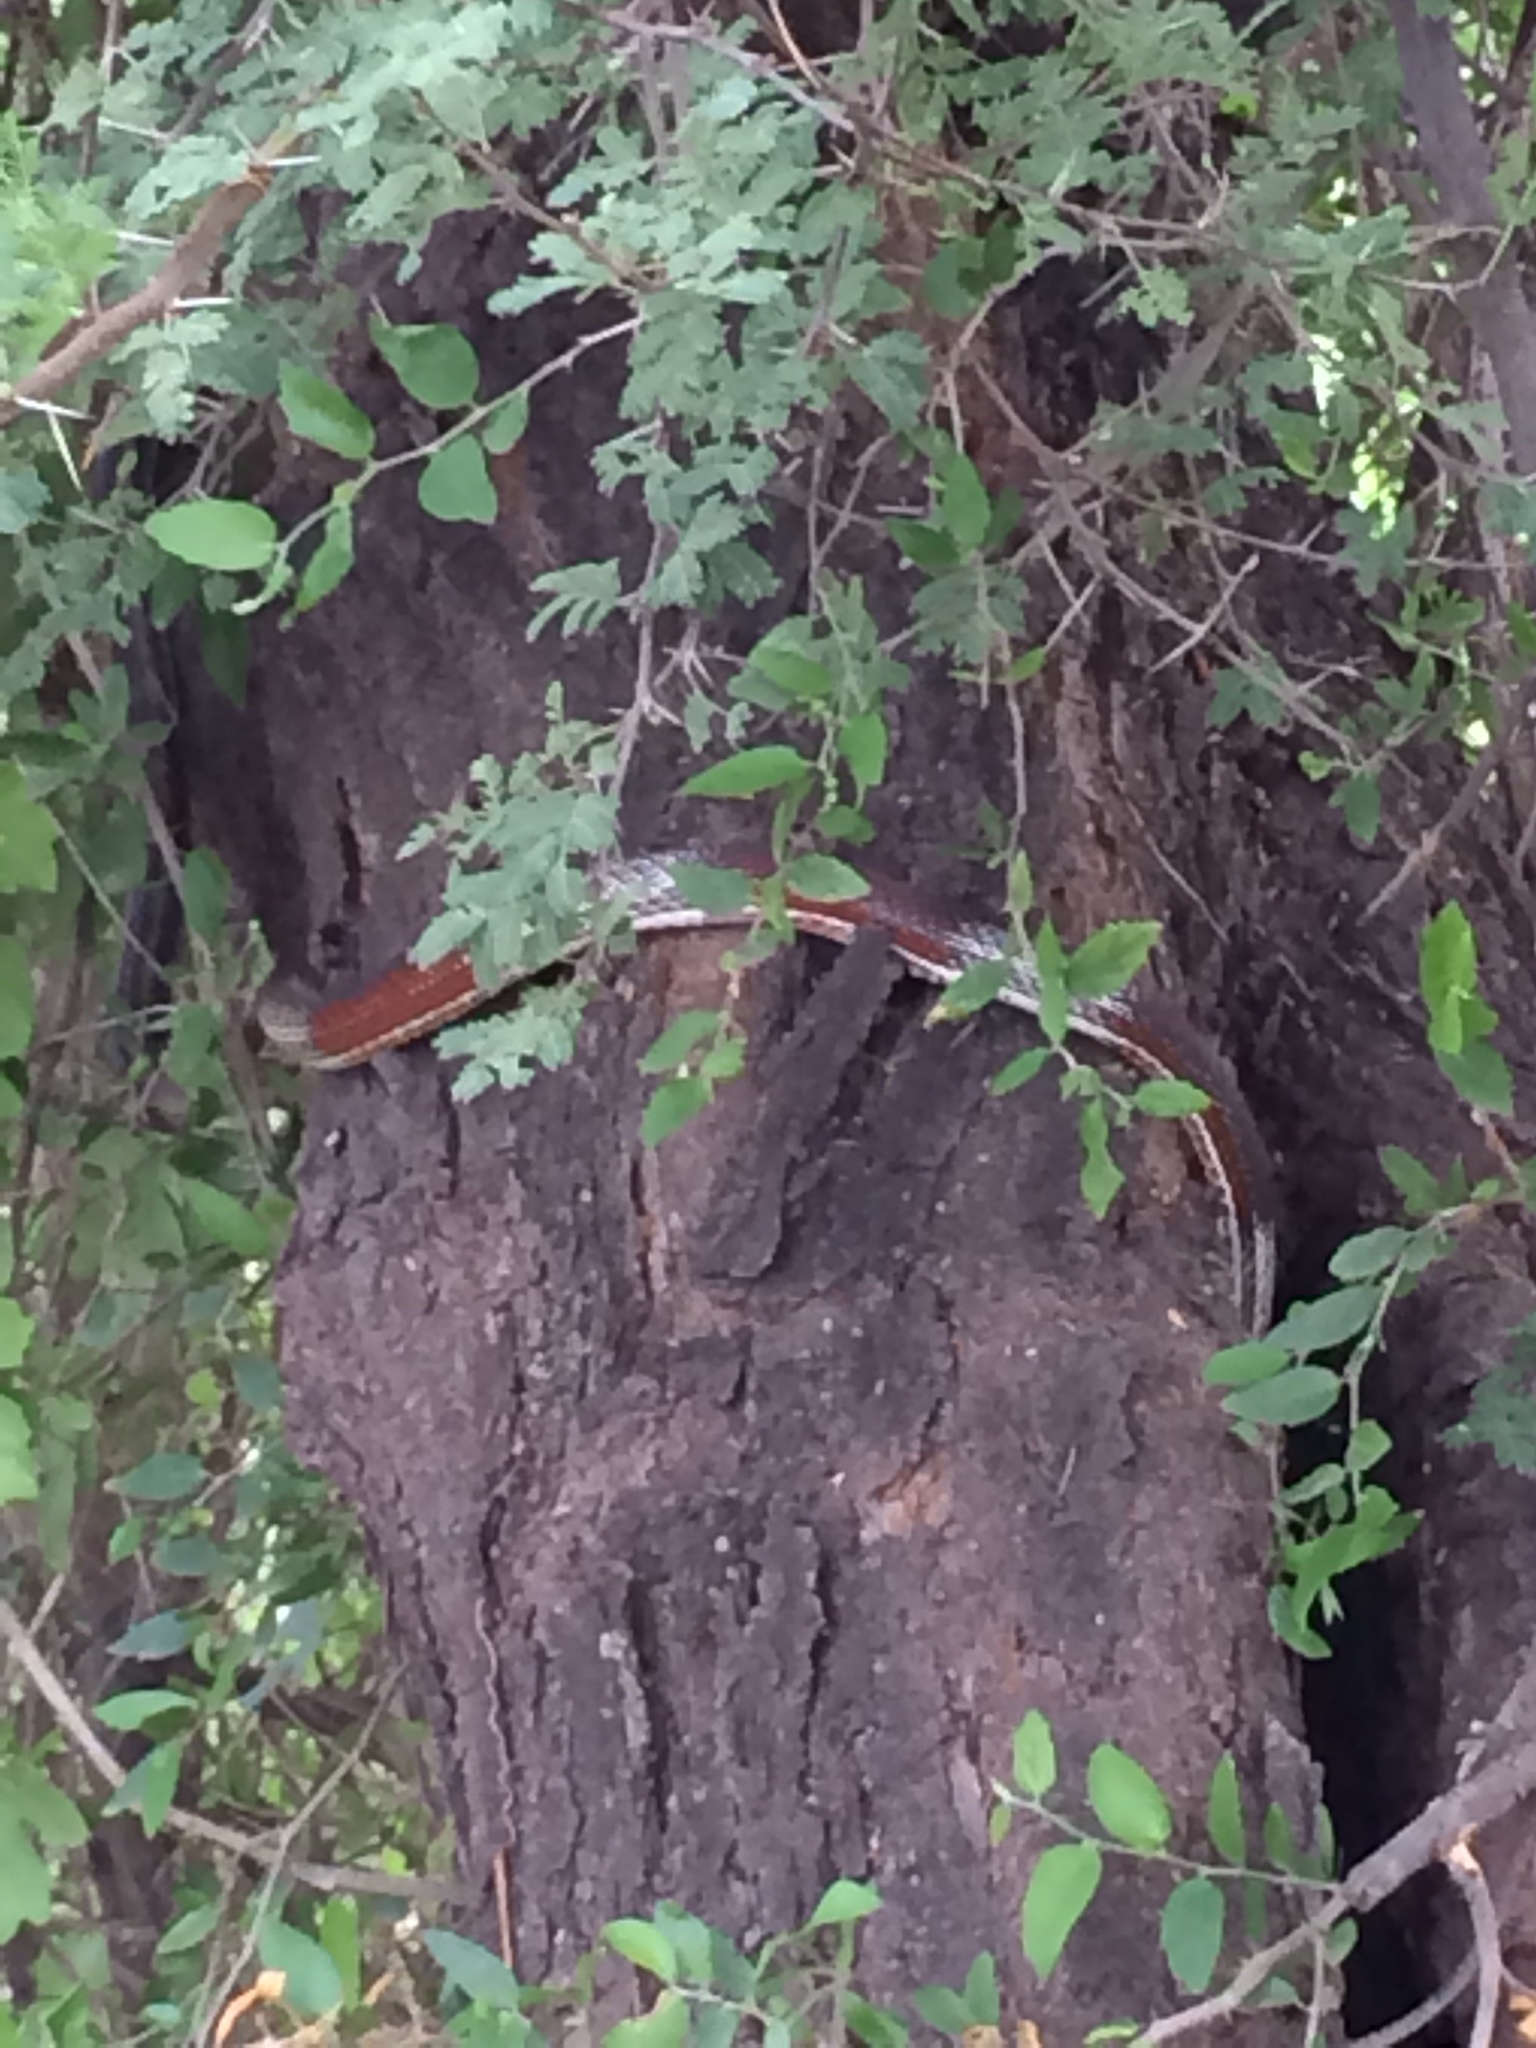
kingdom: Animalia
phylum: Chordata
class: Squamata
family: Colubridae
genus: Masticophis
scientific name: Masticophis taeniatus
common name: Striped whipsnake
